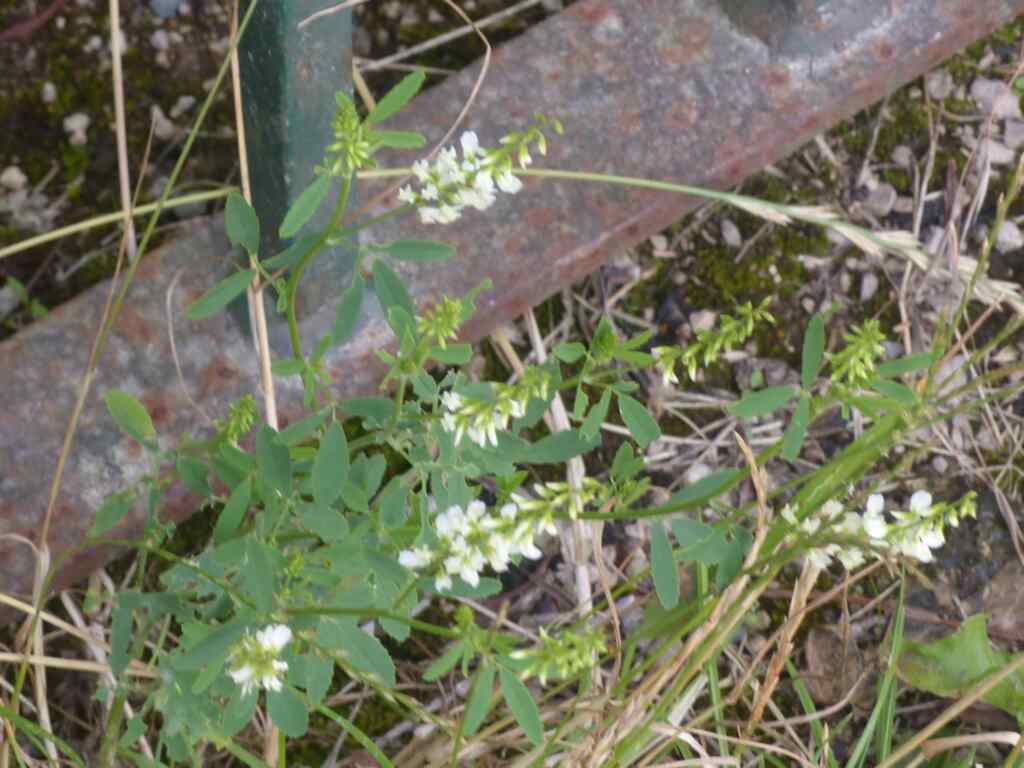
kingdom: Plantae
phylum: Tracheophyta
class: Magnoliopsida
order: Fabales
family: Fabaceae
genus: Melilotus
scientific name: Melilotus albus
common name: White melilot
